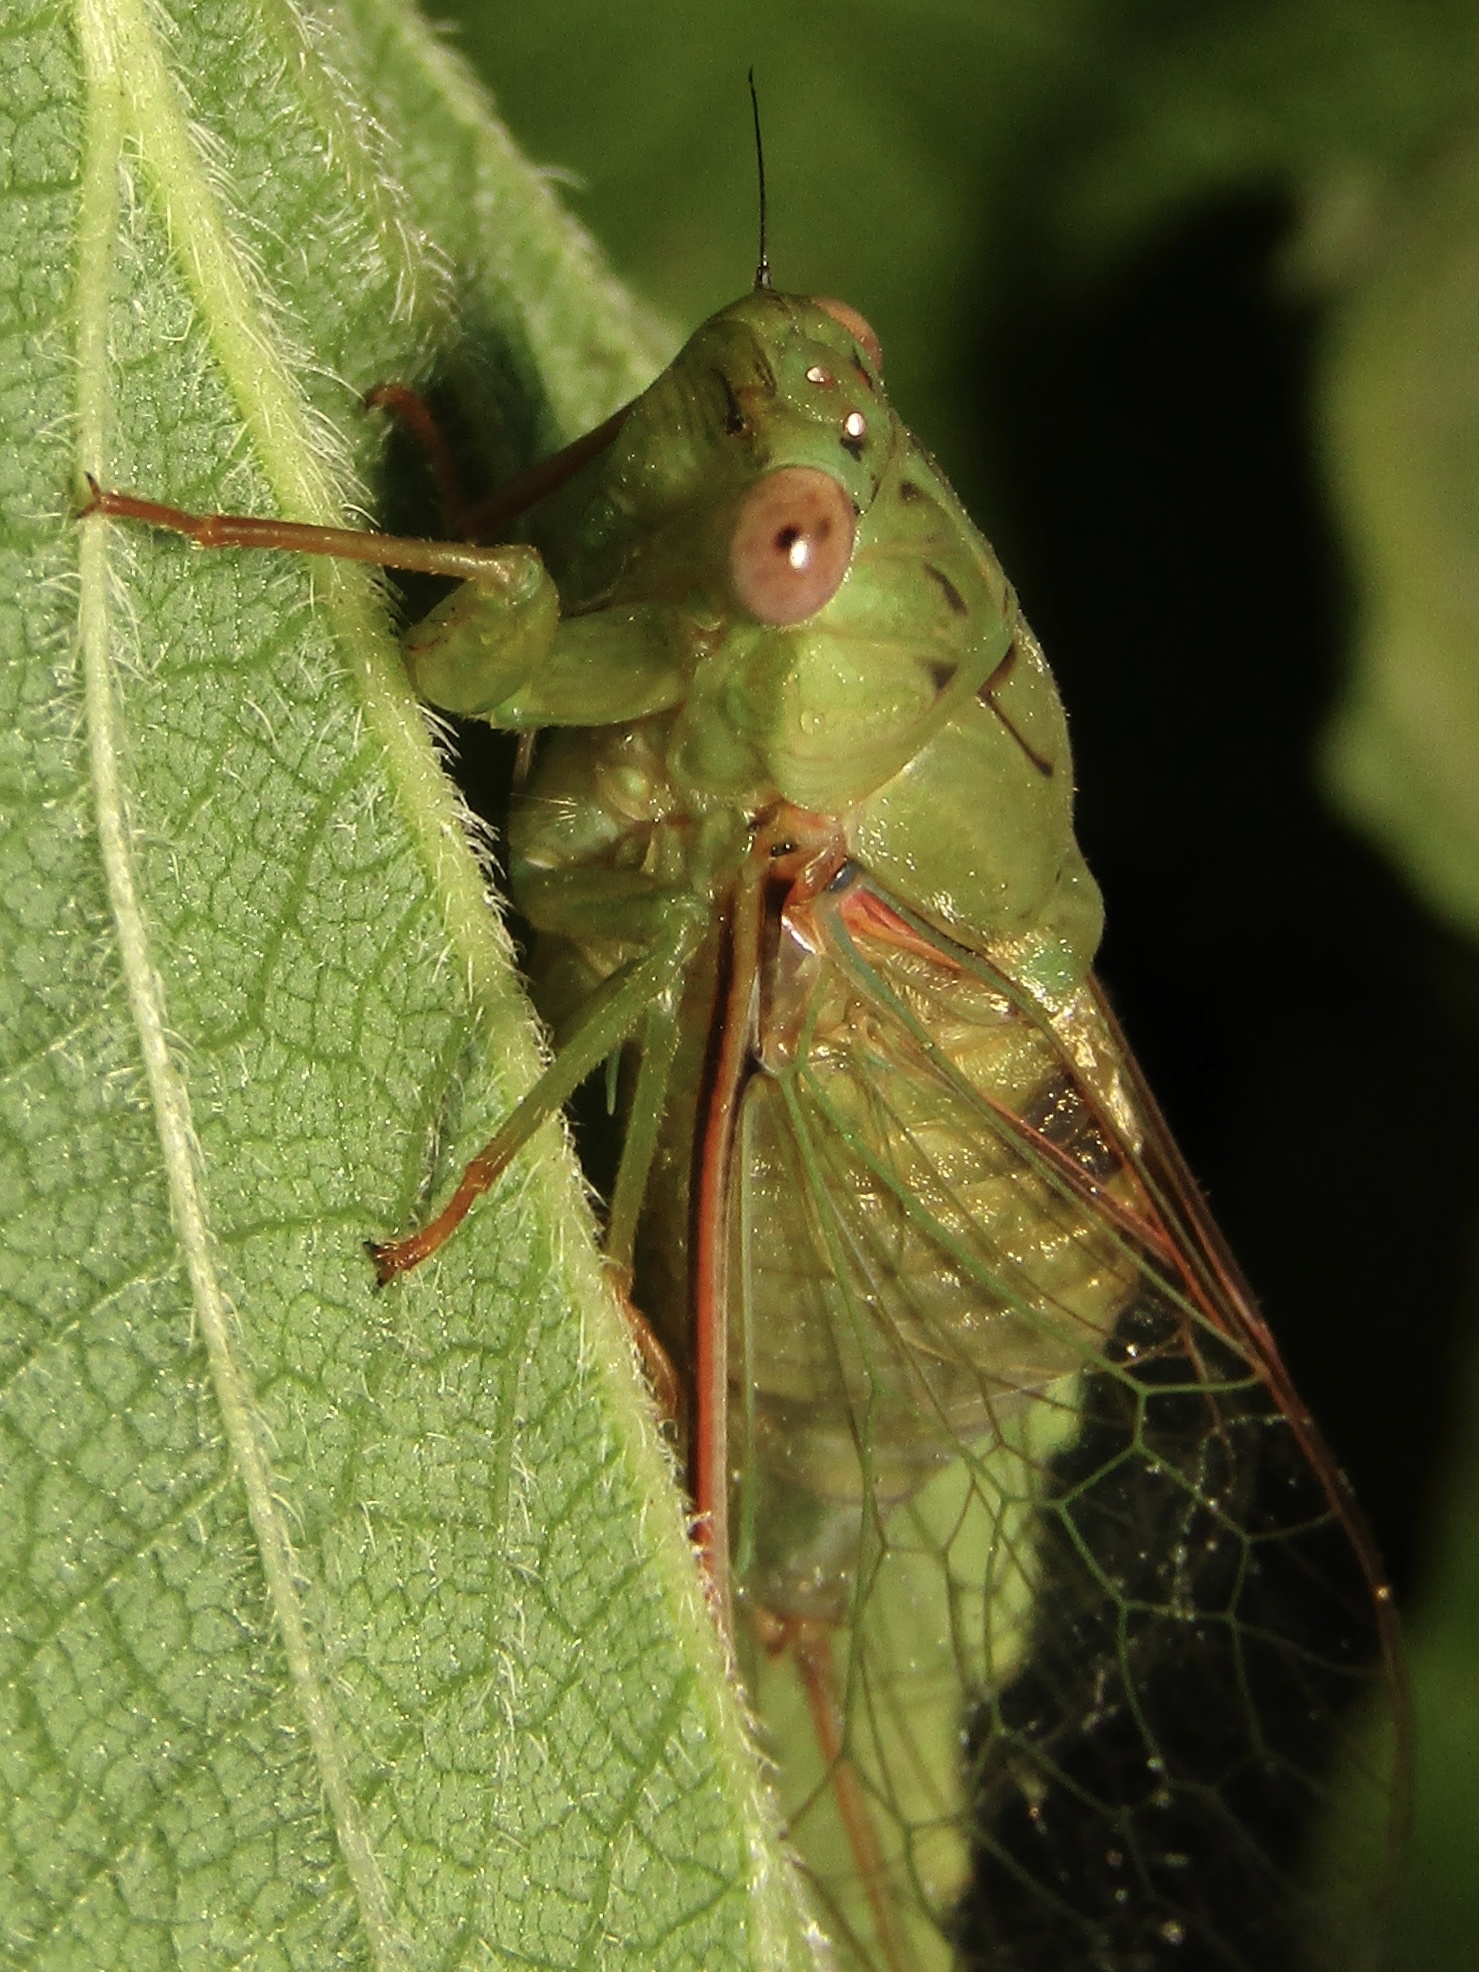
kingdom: Animalia
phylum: Arthropoda
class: Insecta
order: Hemiptera
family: Cicadidae
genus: Chlorocysta
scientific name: Chlorocysta vitripennis
